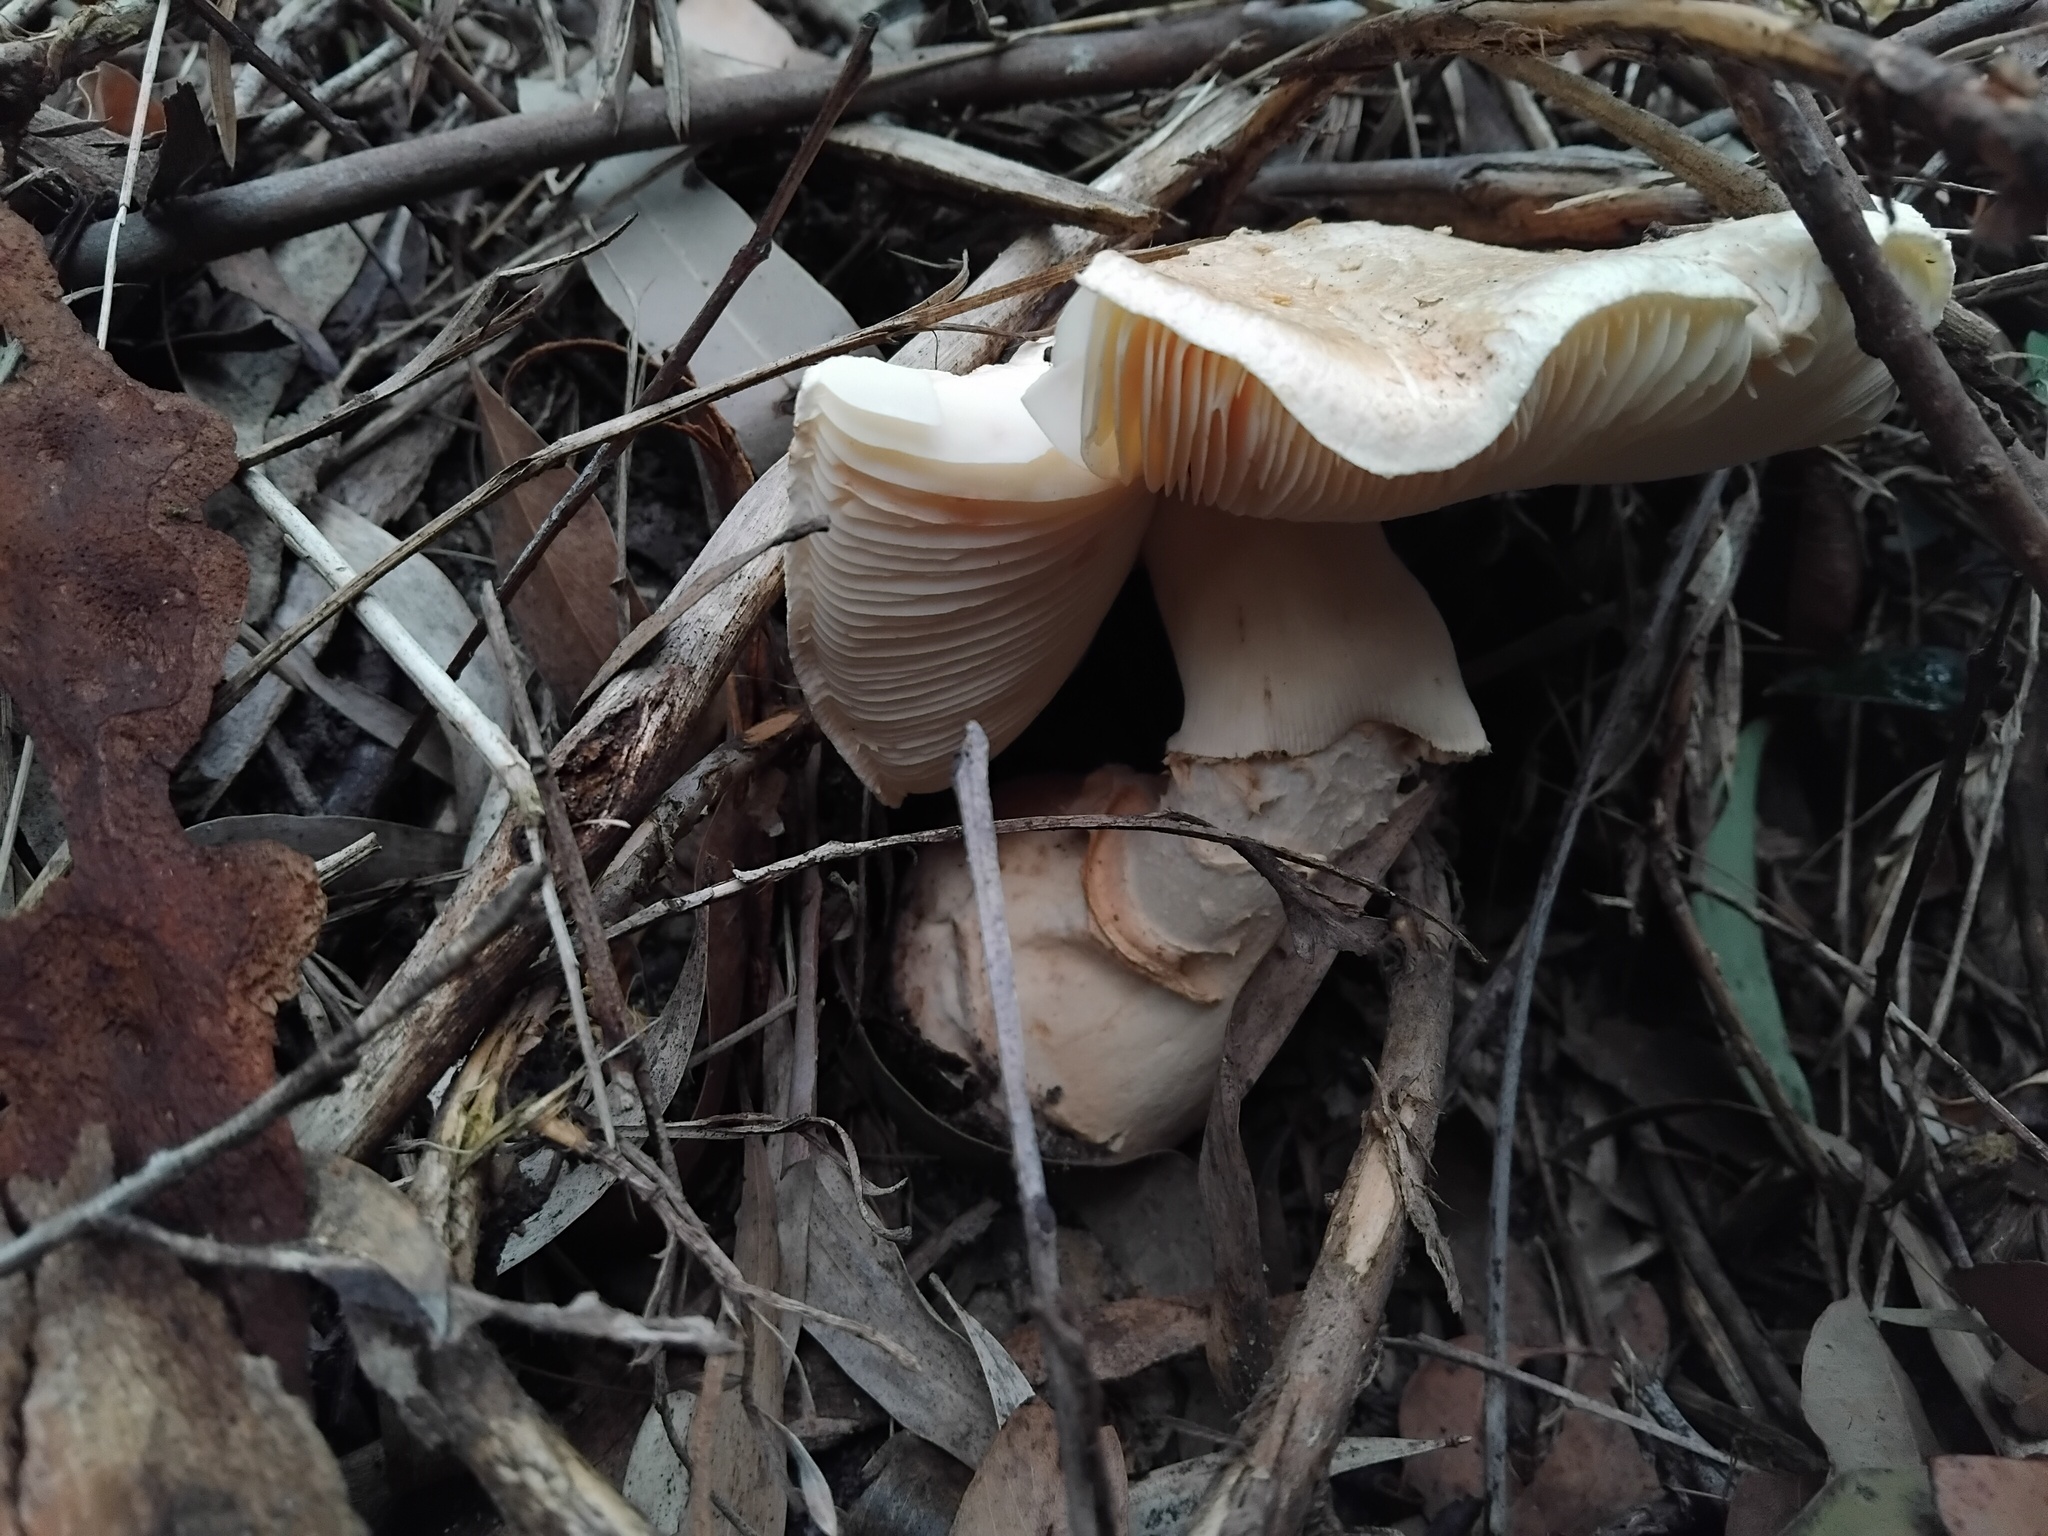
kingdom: Fungi
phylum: Basidiomycota
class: Agaricomycetes
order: Agaricales
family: Amanitaceae
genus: Amanita
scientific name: Amanita ochrophylla
